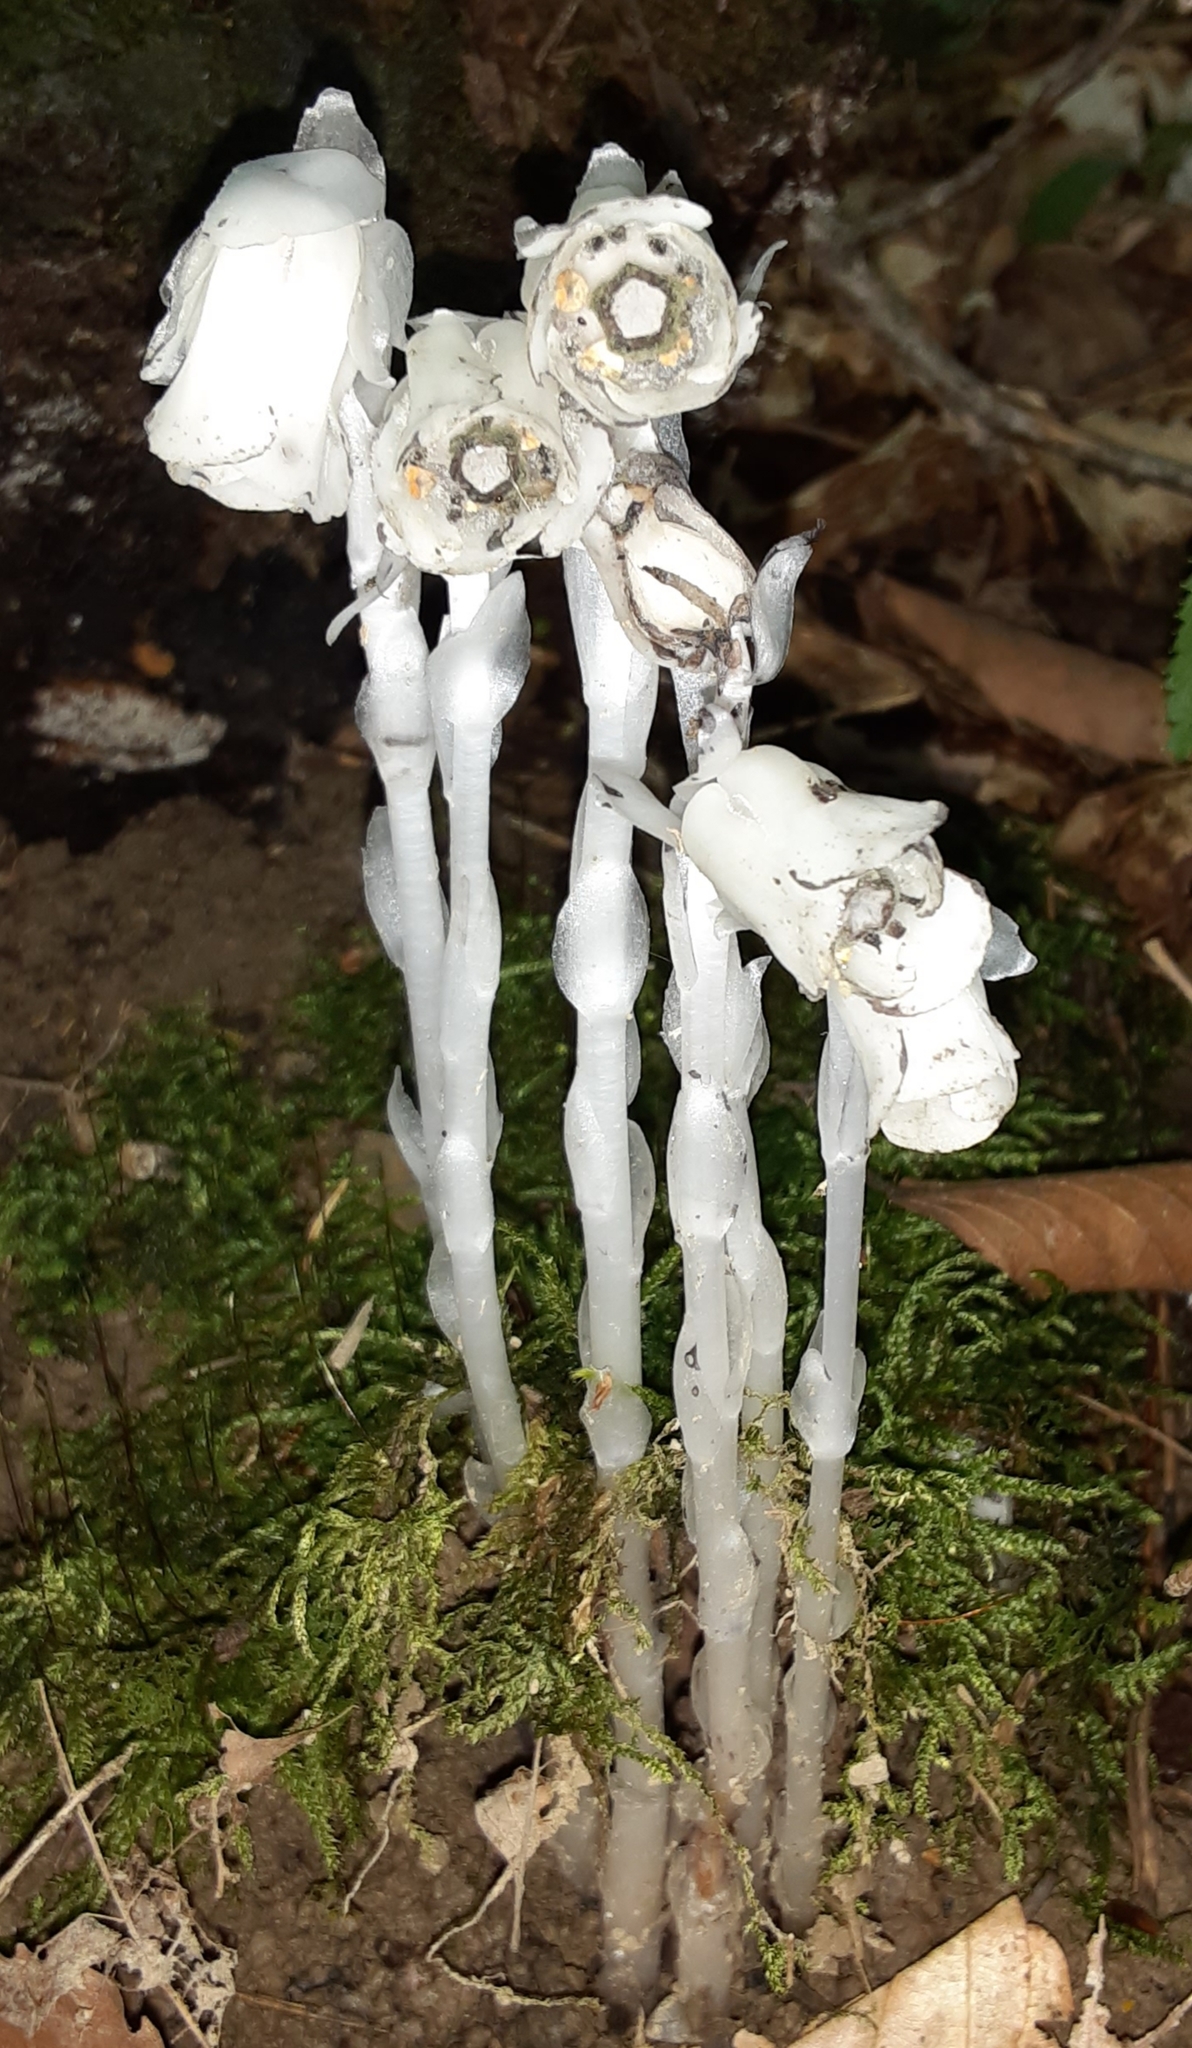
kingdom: Plantae
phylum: Tracheophyta
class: Magnoliopsida
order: Ericales
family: Ericaceae
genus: Monotropa
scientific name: Monotropa uniflora
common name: Convulsion root
